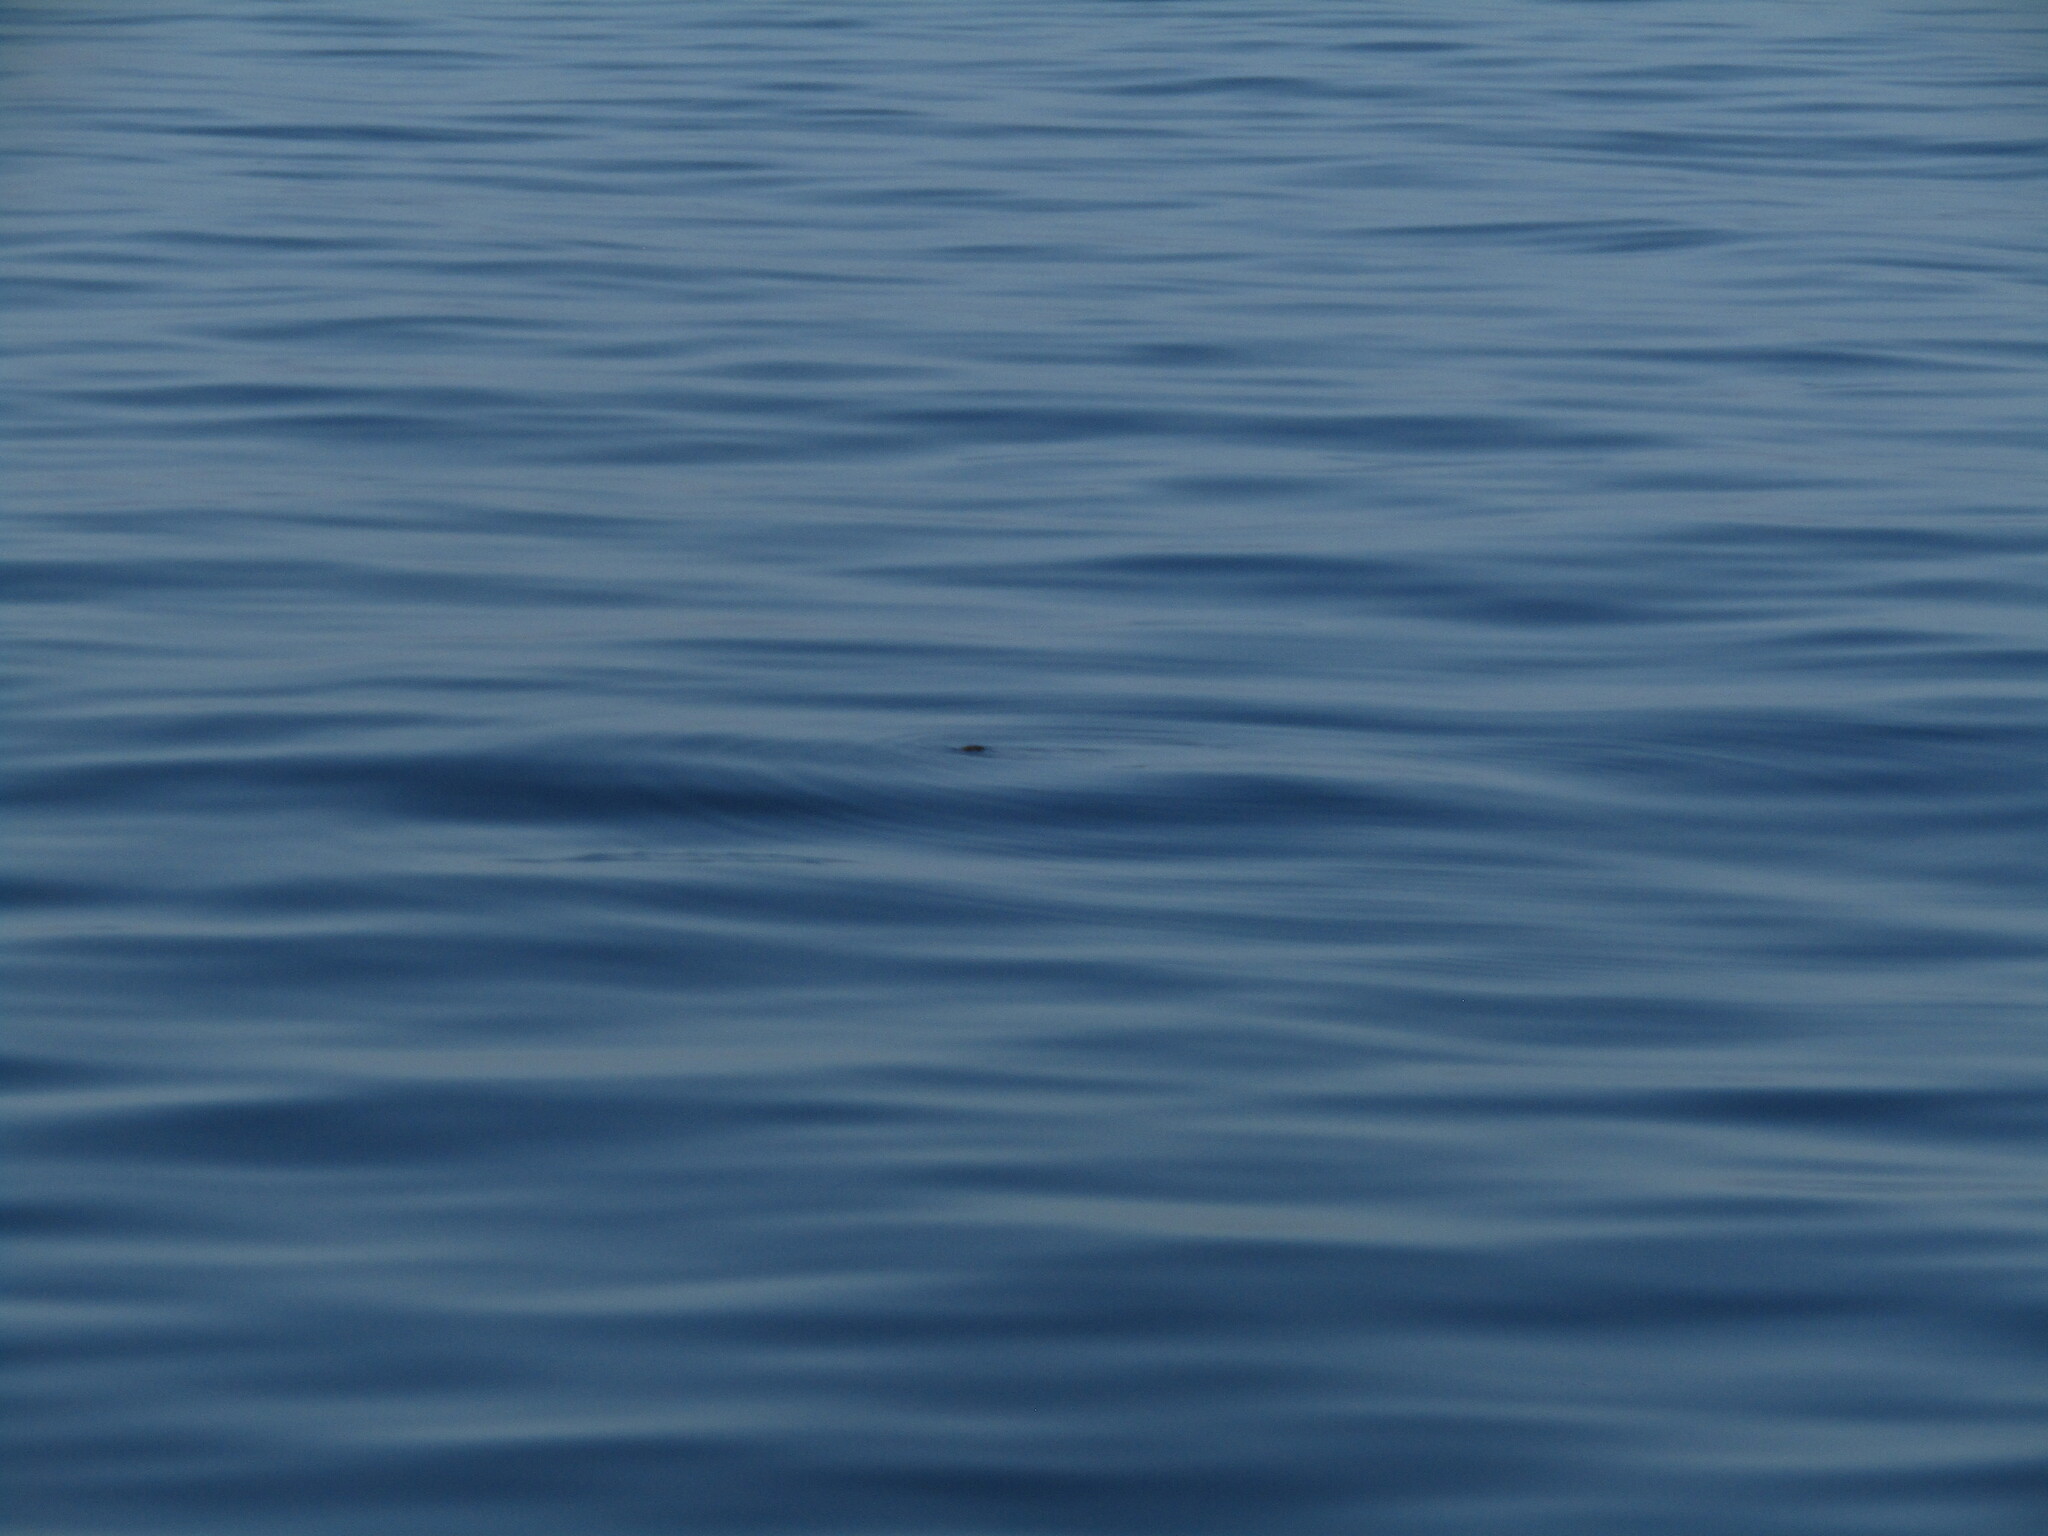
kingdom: Animalia
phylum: Chordata
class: Mammalia
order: Carnivora
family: Mustelidae
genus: Lontra
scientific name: Lontra felina
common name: Marine otter
